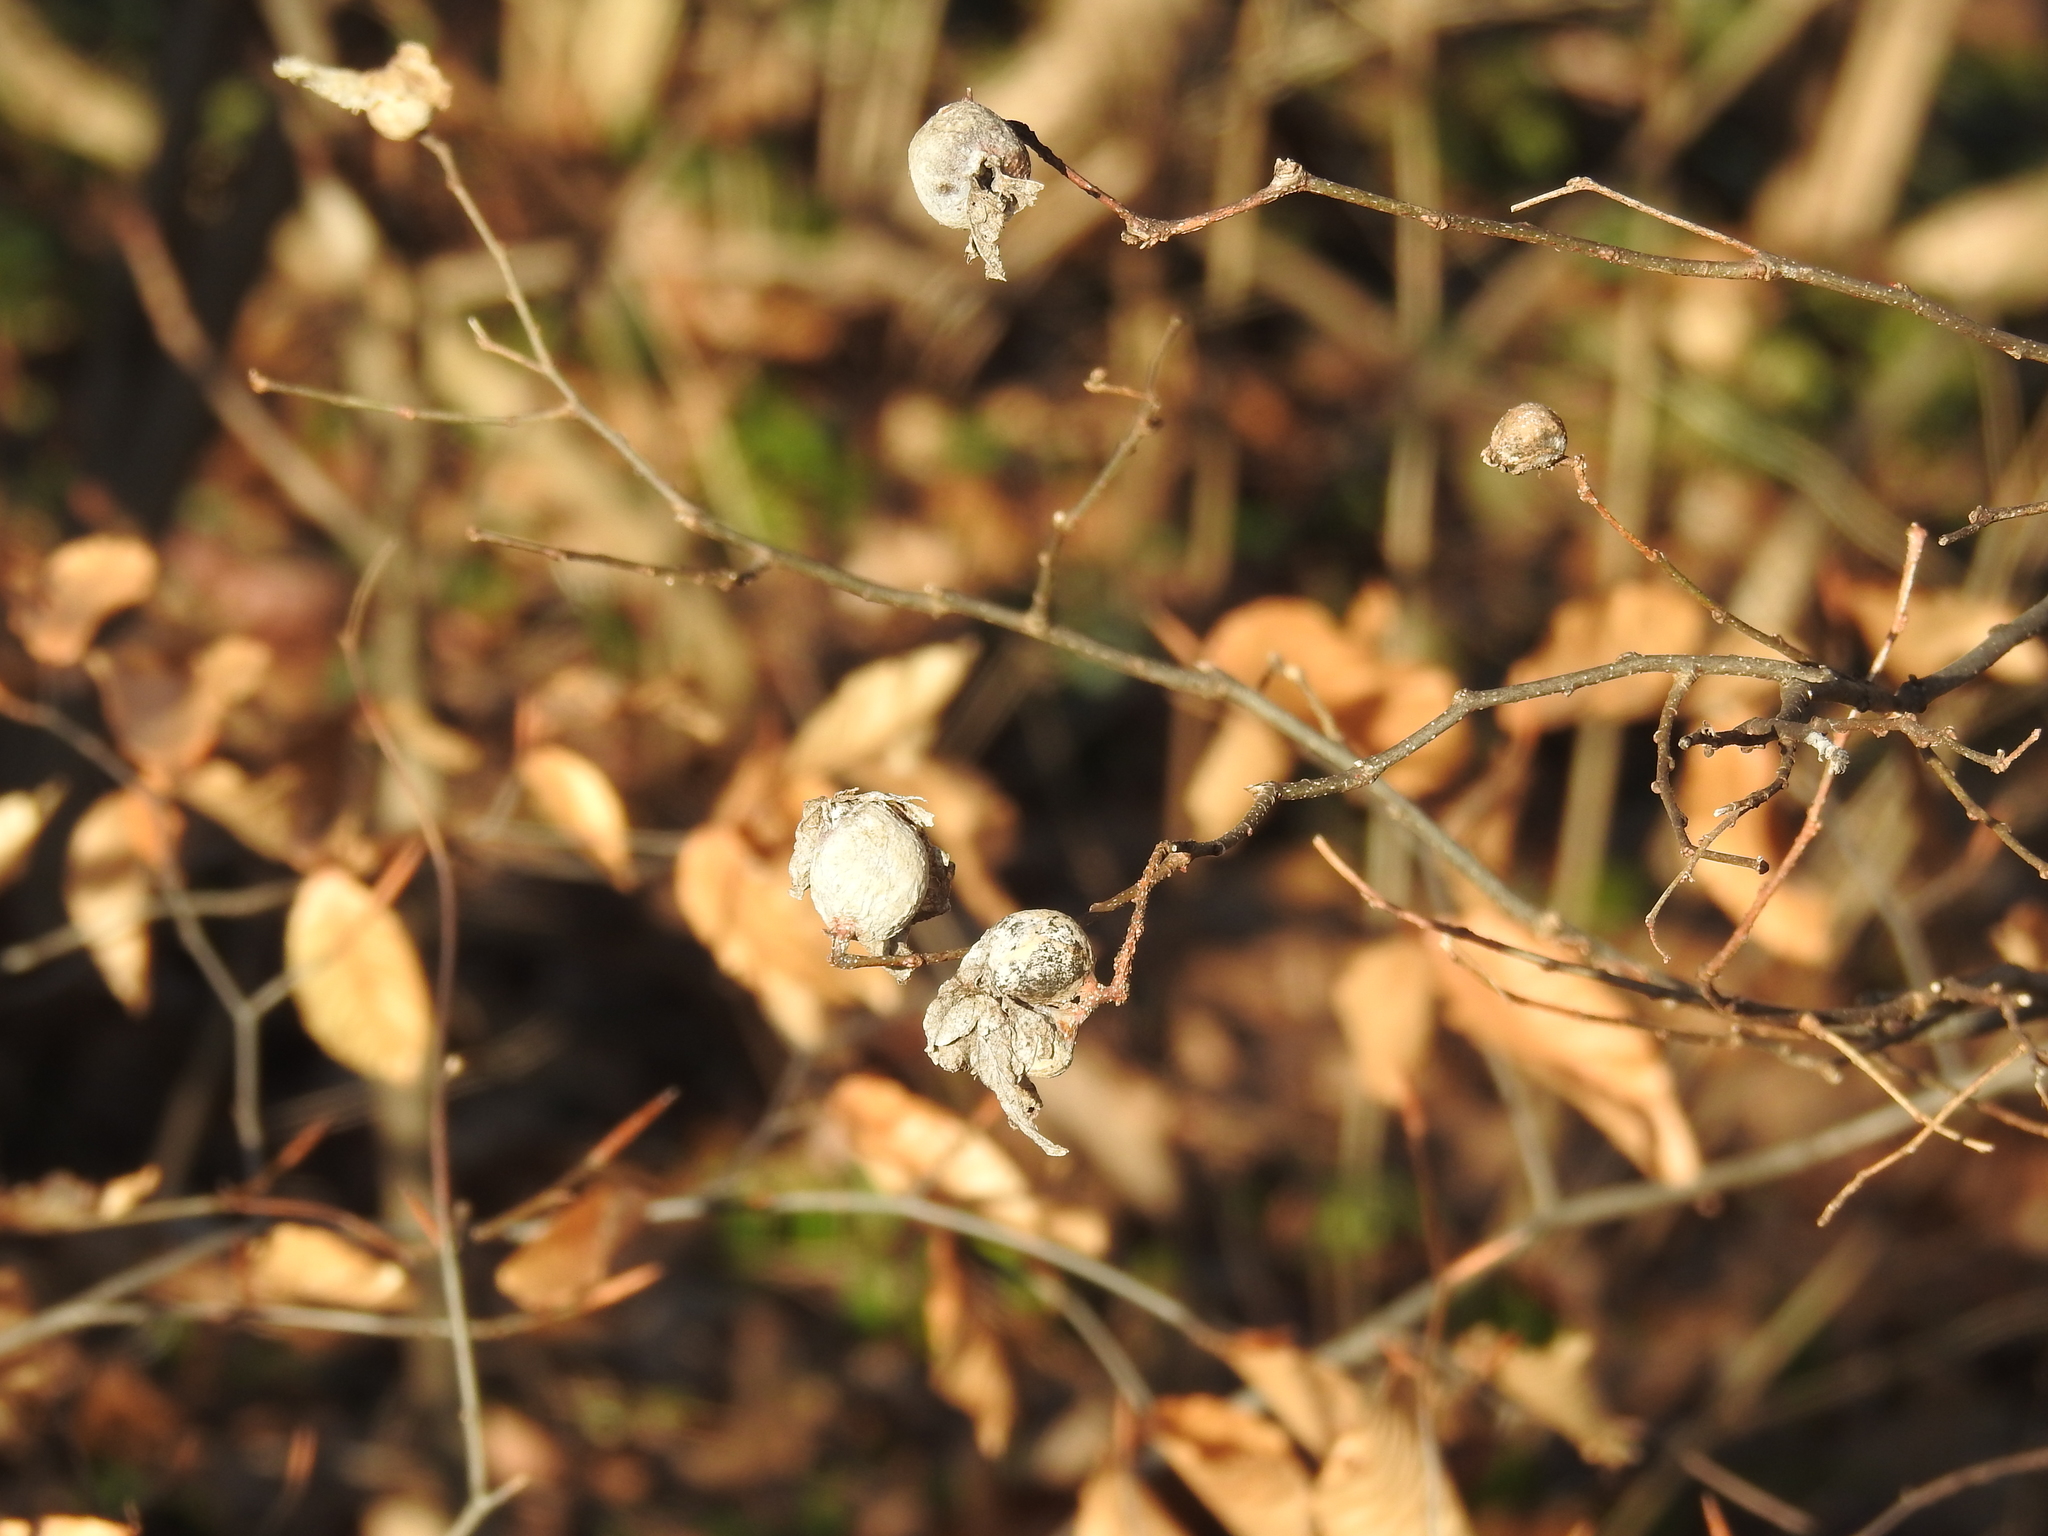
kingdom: Animalia
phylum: Arthropoda
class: Insecta
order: Hemiptera
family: Aphalaridae
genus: Pachypsylla
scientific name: Pachypsylla venusta
